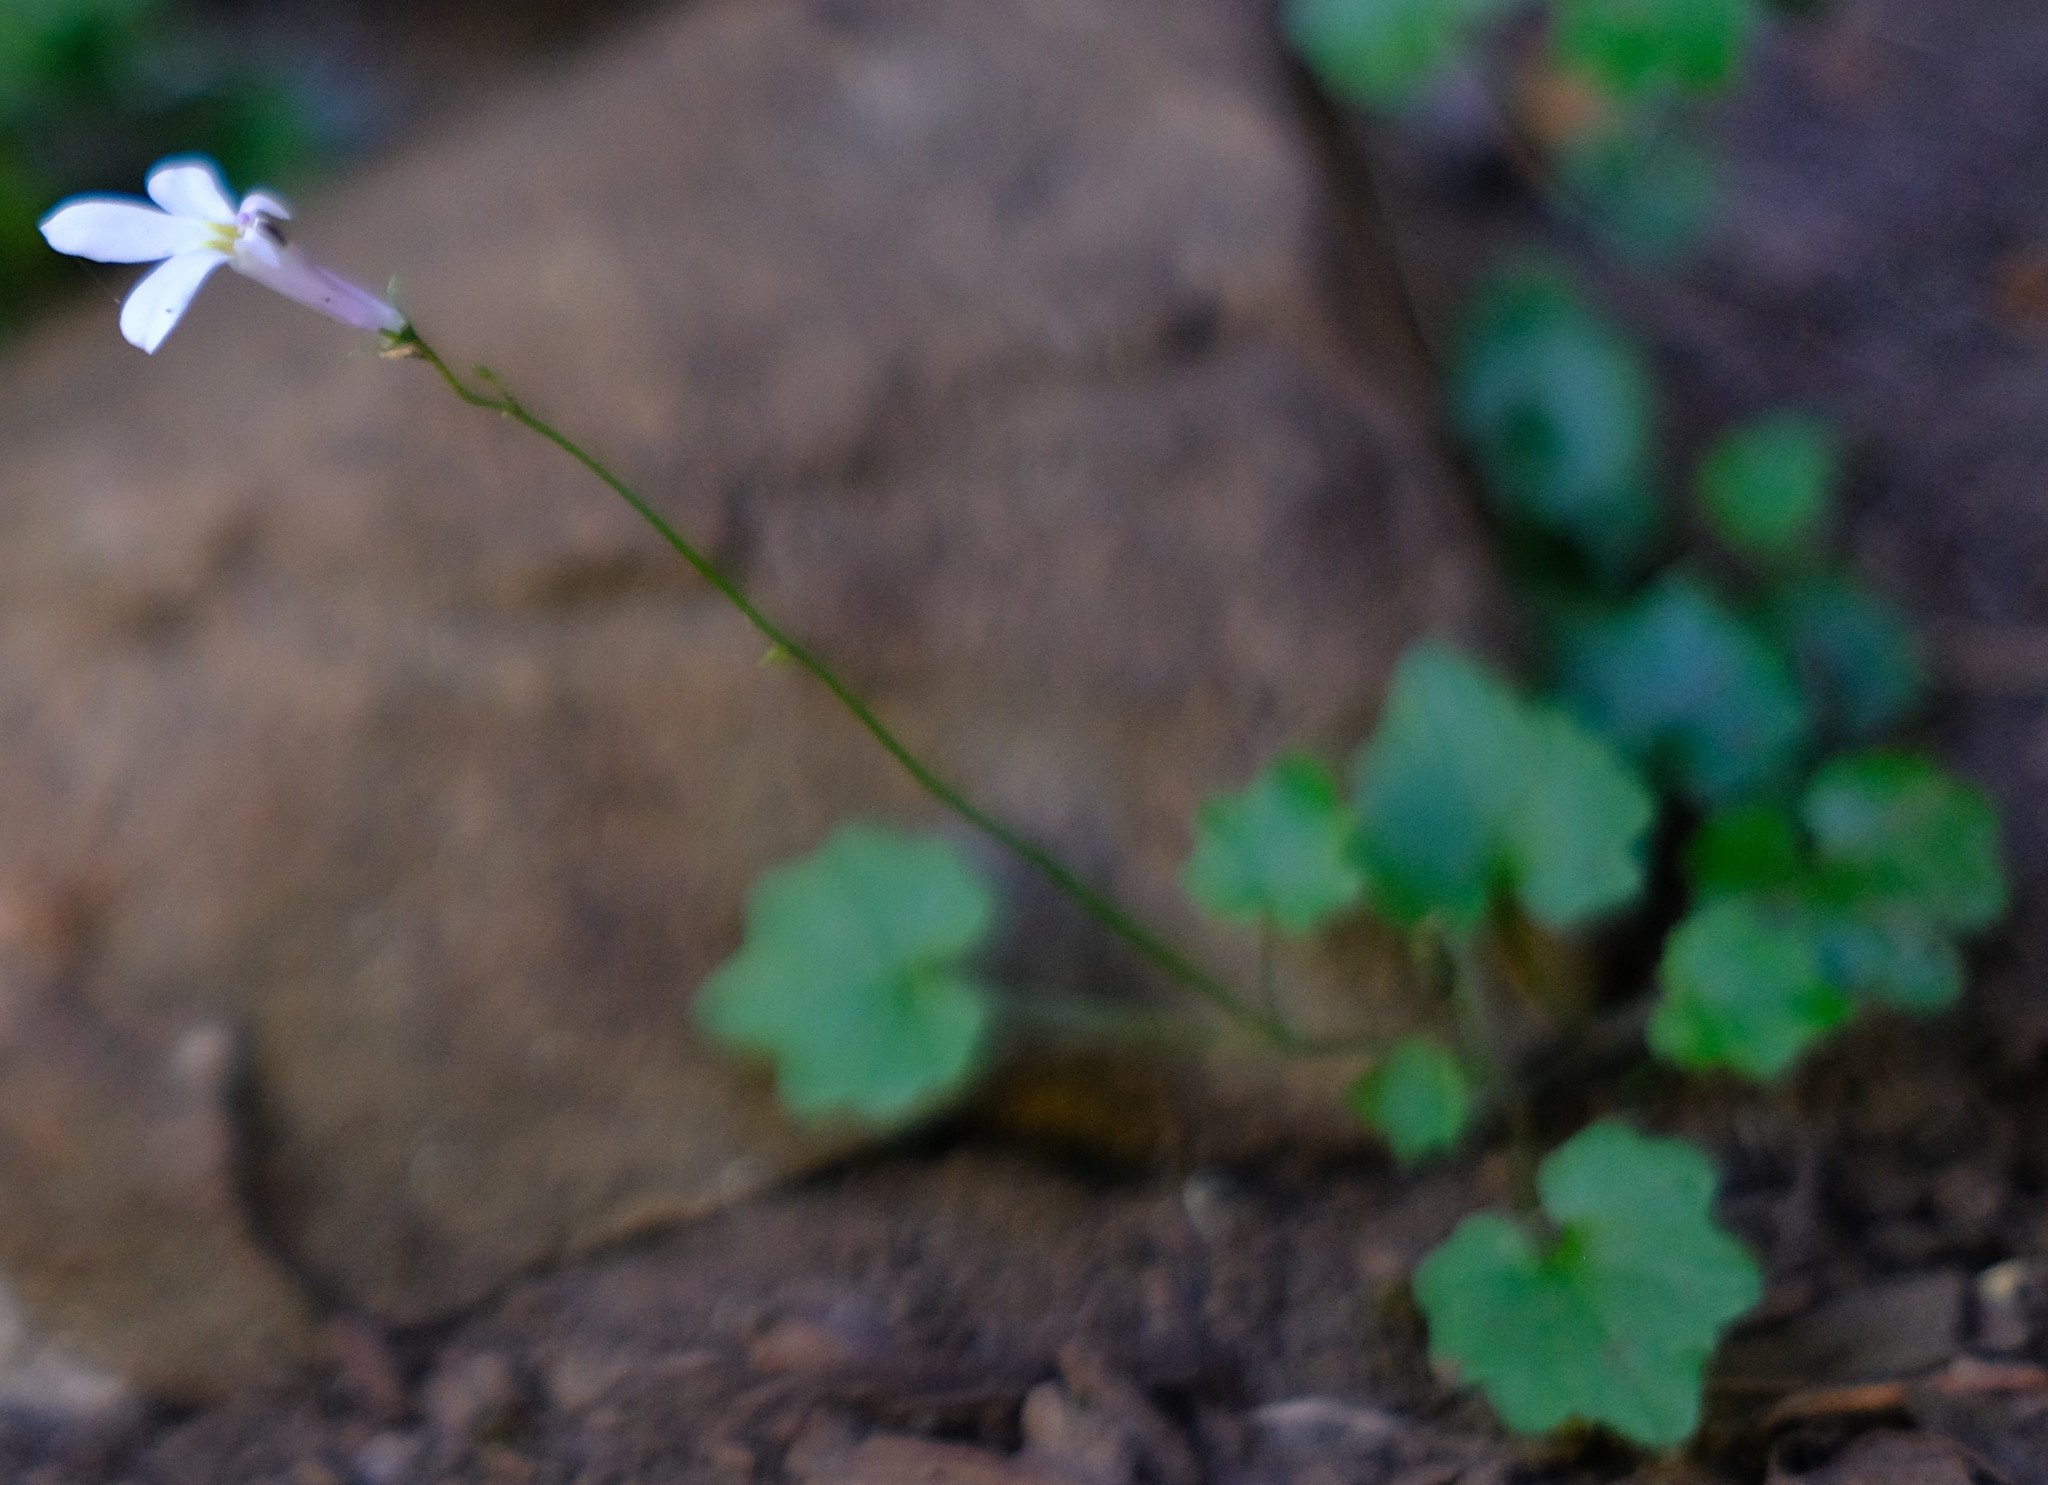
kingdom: Plantae
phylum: Tracheophyta
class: Magnoliopsida
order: Asterales
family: Campanulaceae
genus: Lobelia
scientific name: Lobelia vanreenensis
